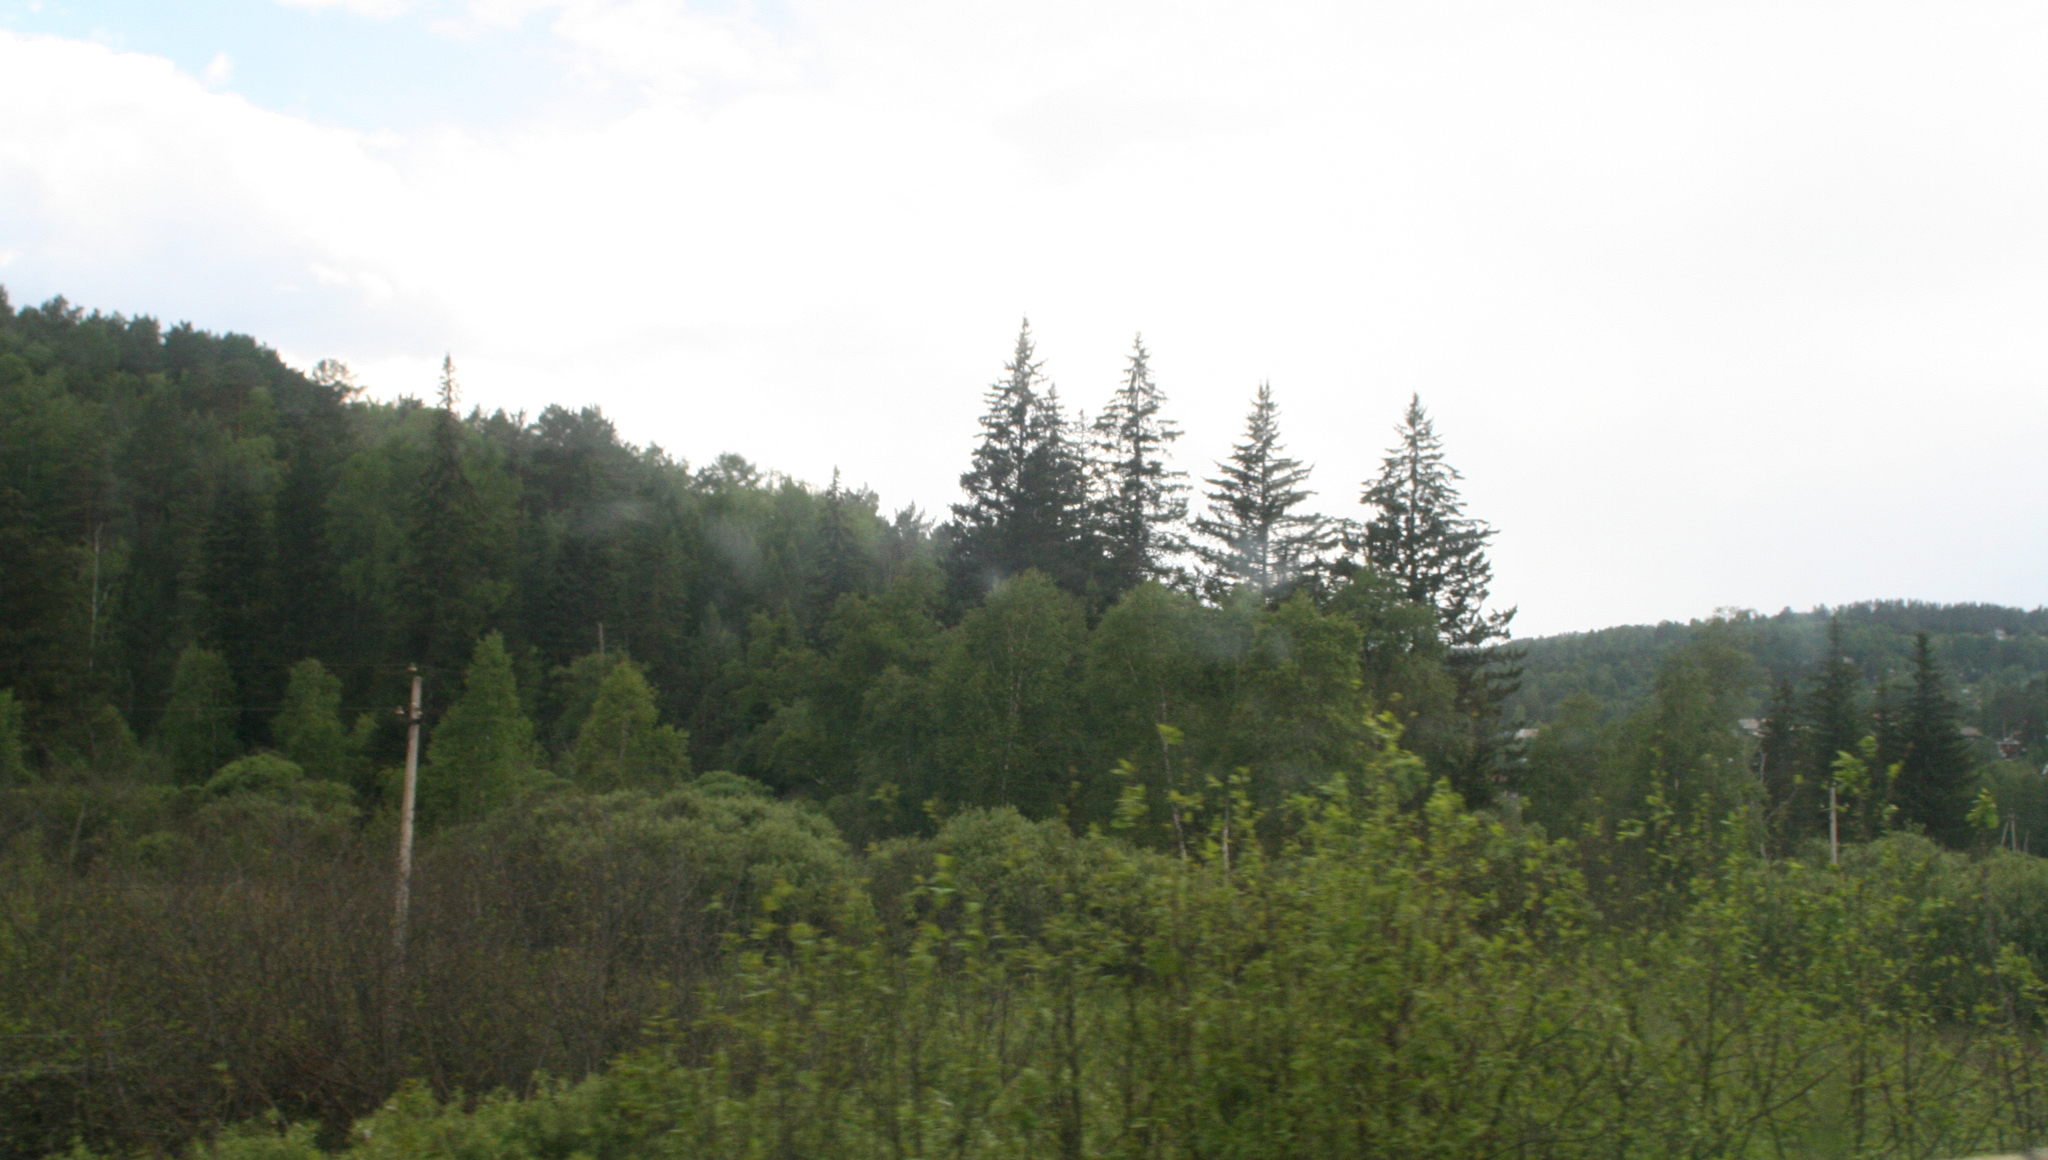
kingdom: Plantae
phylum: Tracheophyta
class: Pinopsida
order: Pinales
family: Pinaceae
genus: Picea
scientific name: Picea obovata
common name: Siberian spruce
